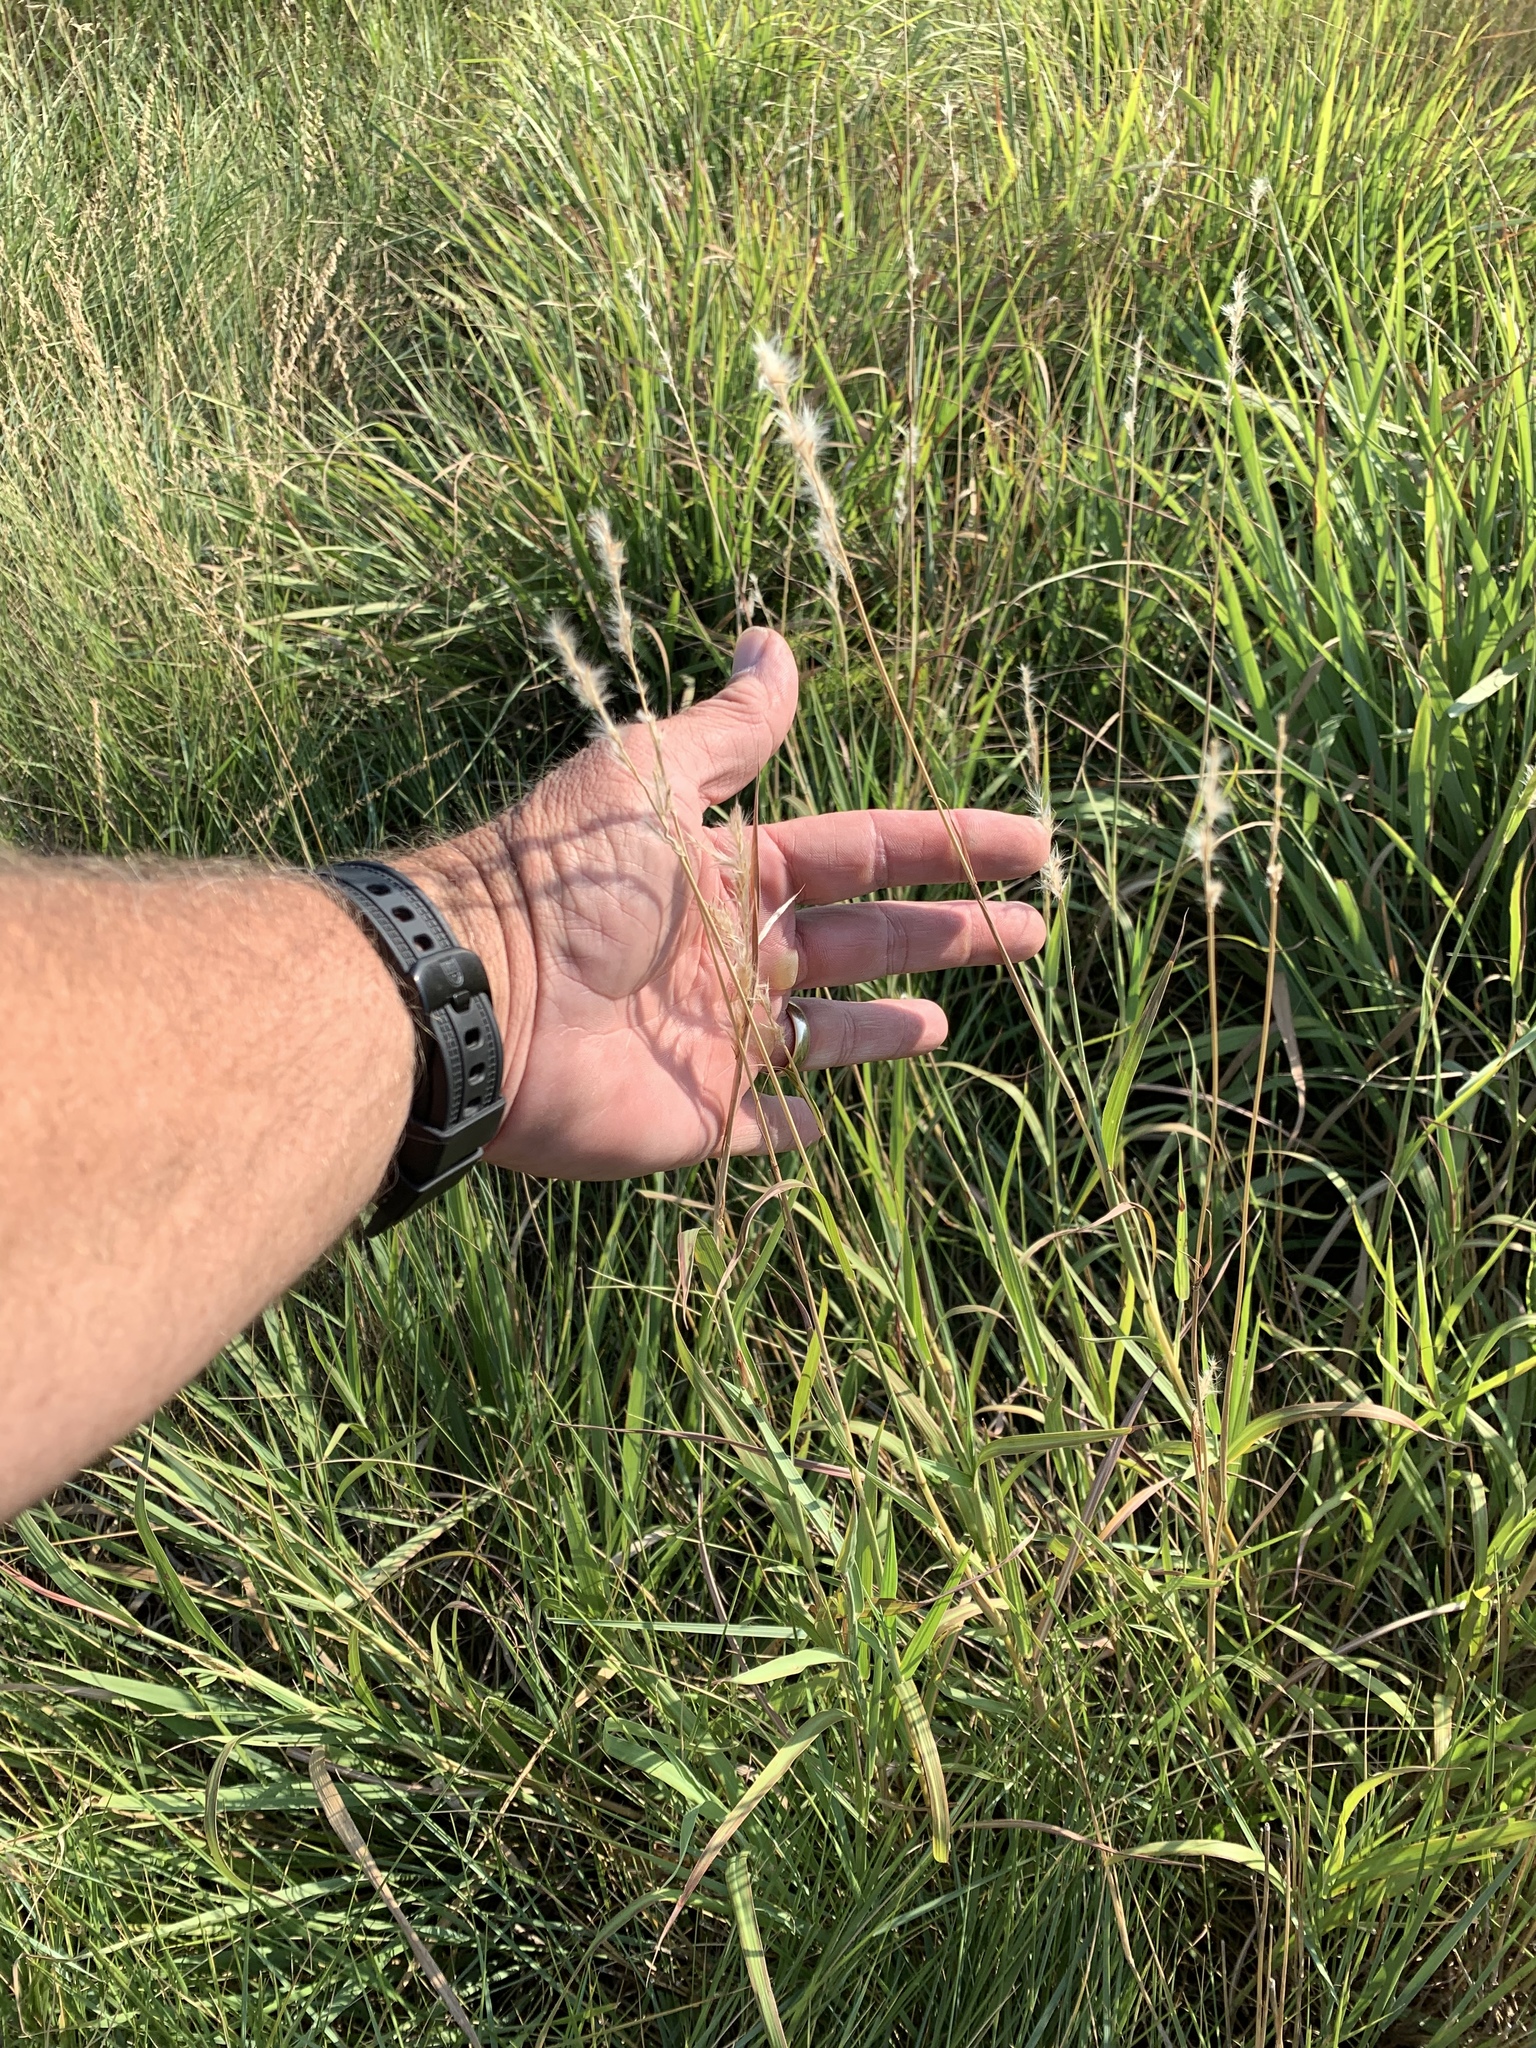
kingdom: Plantae
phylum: Tracheophyta
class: Liliopsida
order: Poales
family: Poaceae
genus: Bothriochloa
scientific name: Bothriochloa torreyana
